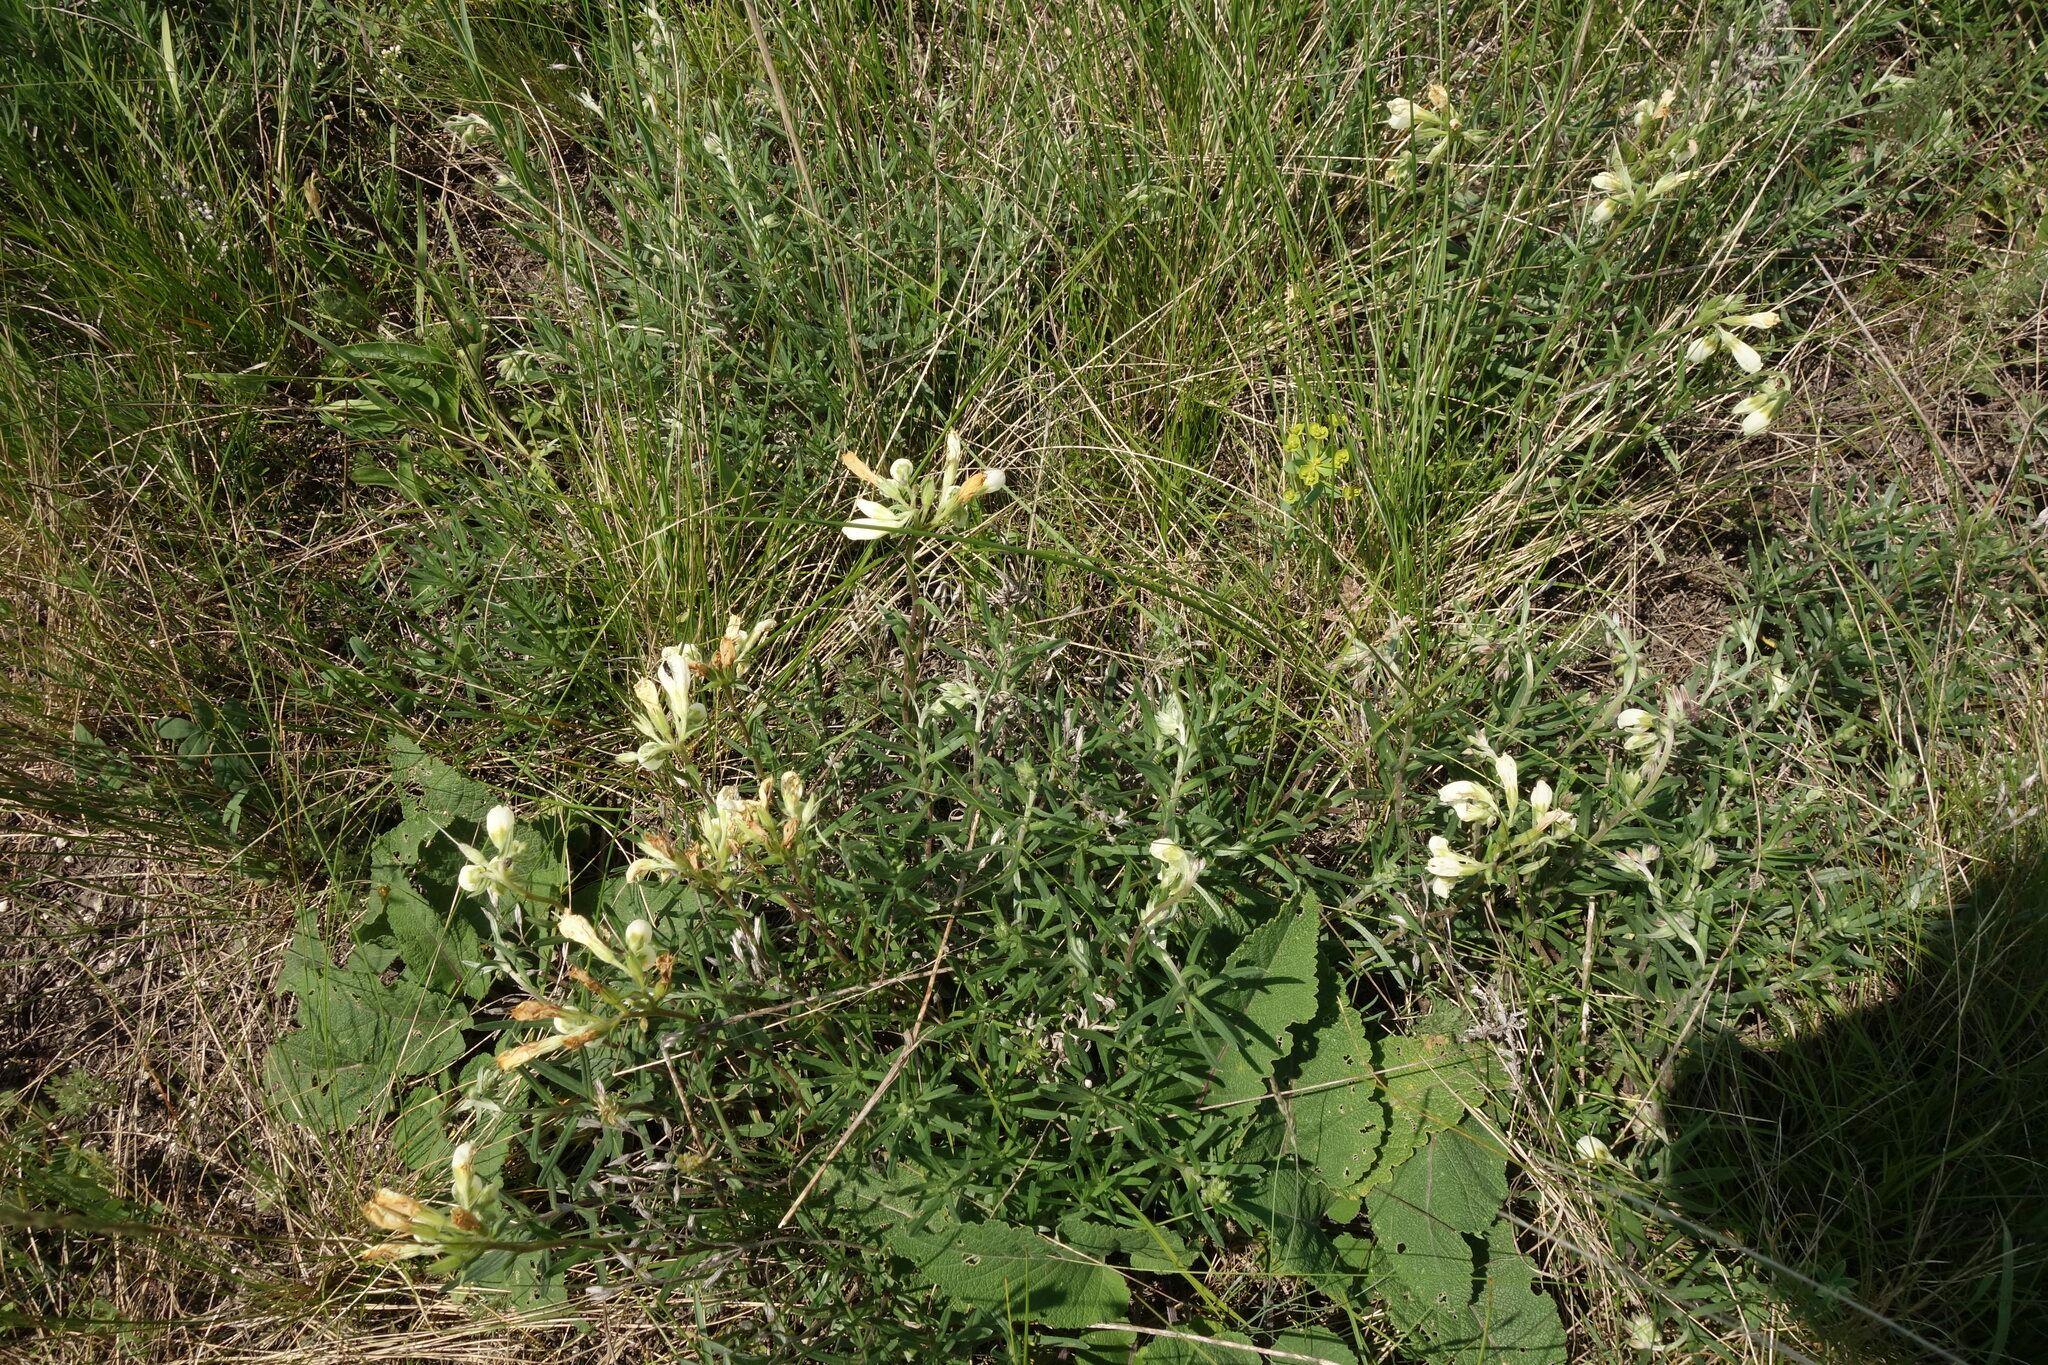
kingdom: Plantae
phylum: Tracheophyta
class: Magnoliopsida
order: Boraginales
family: Boraginaceae
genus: Onosma
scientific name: Onosma simplicissima
